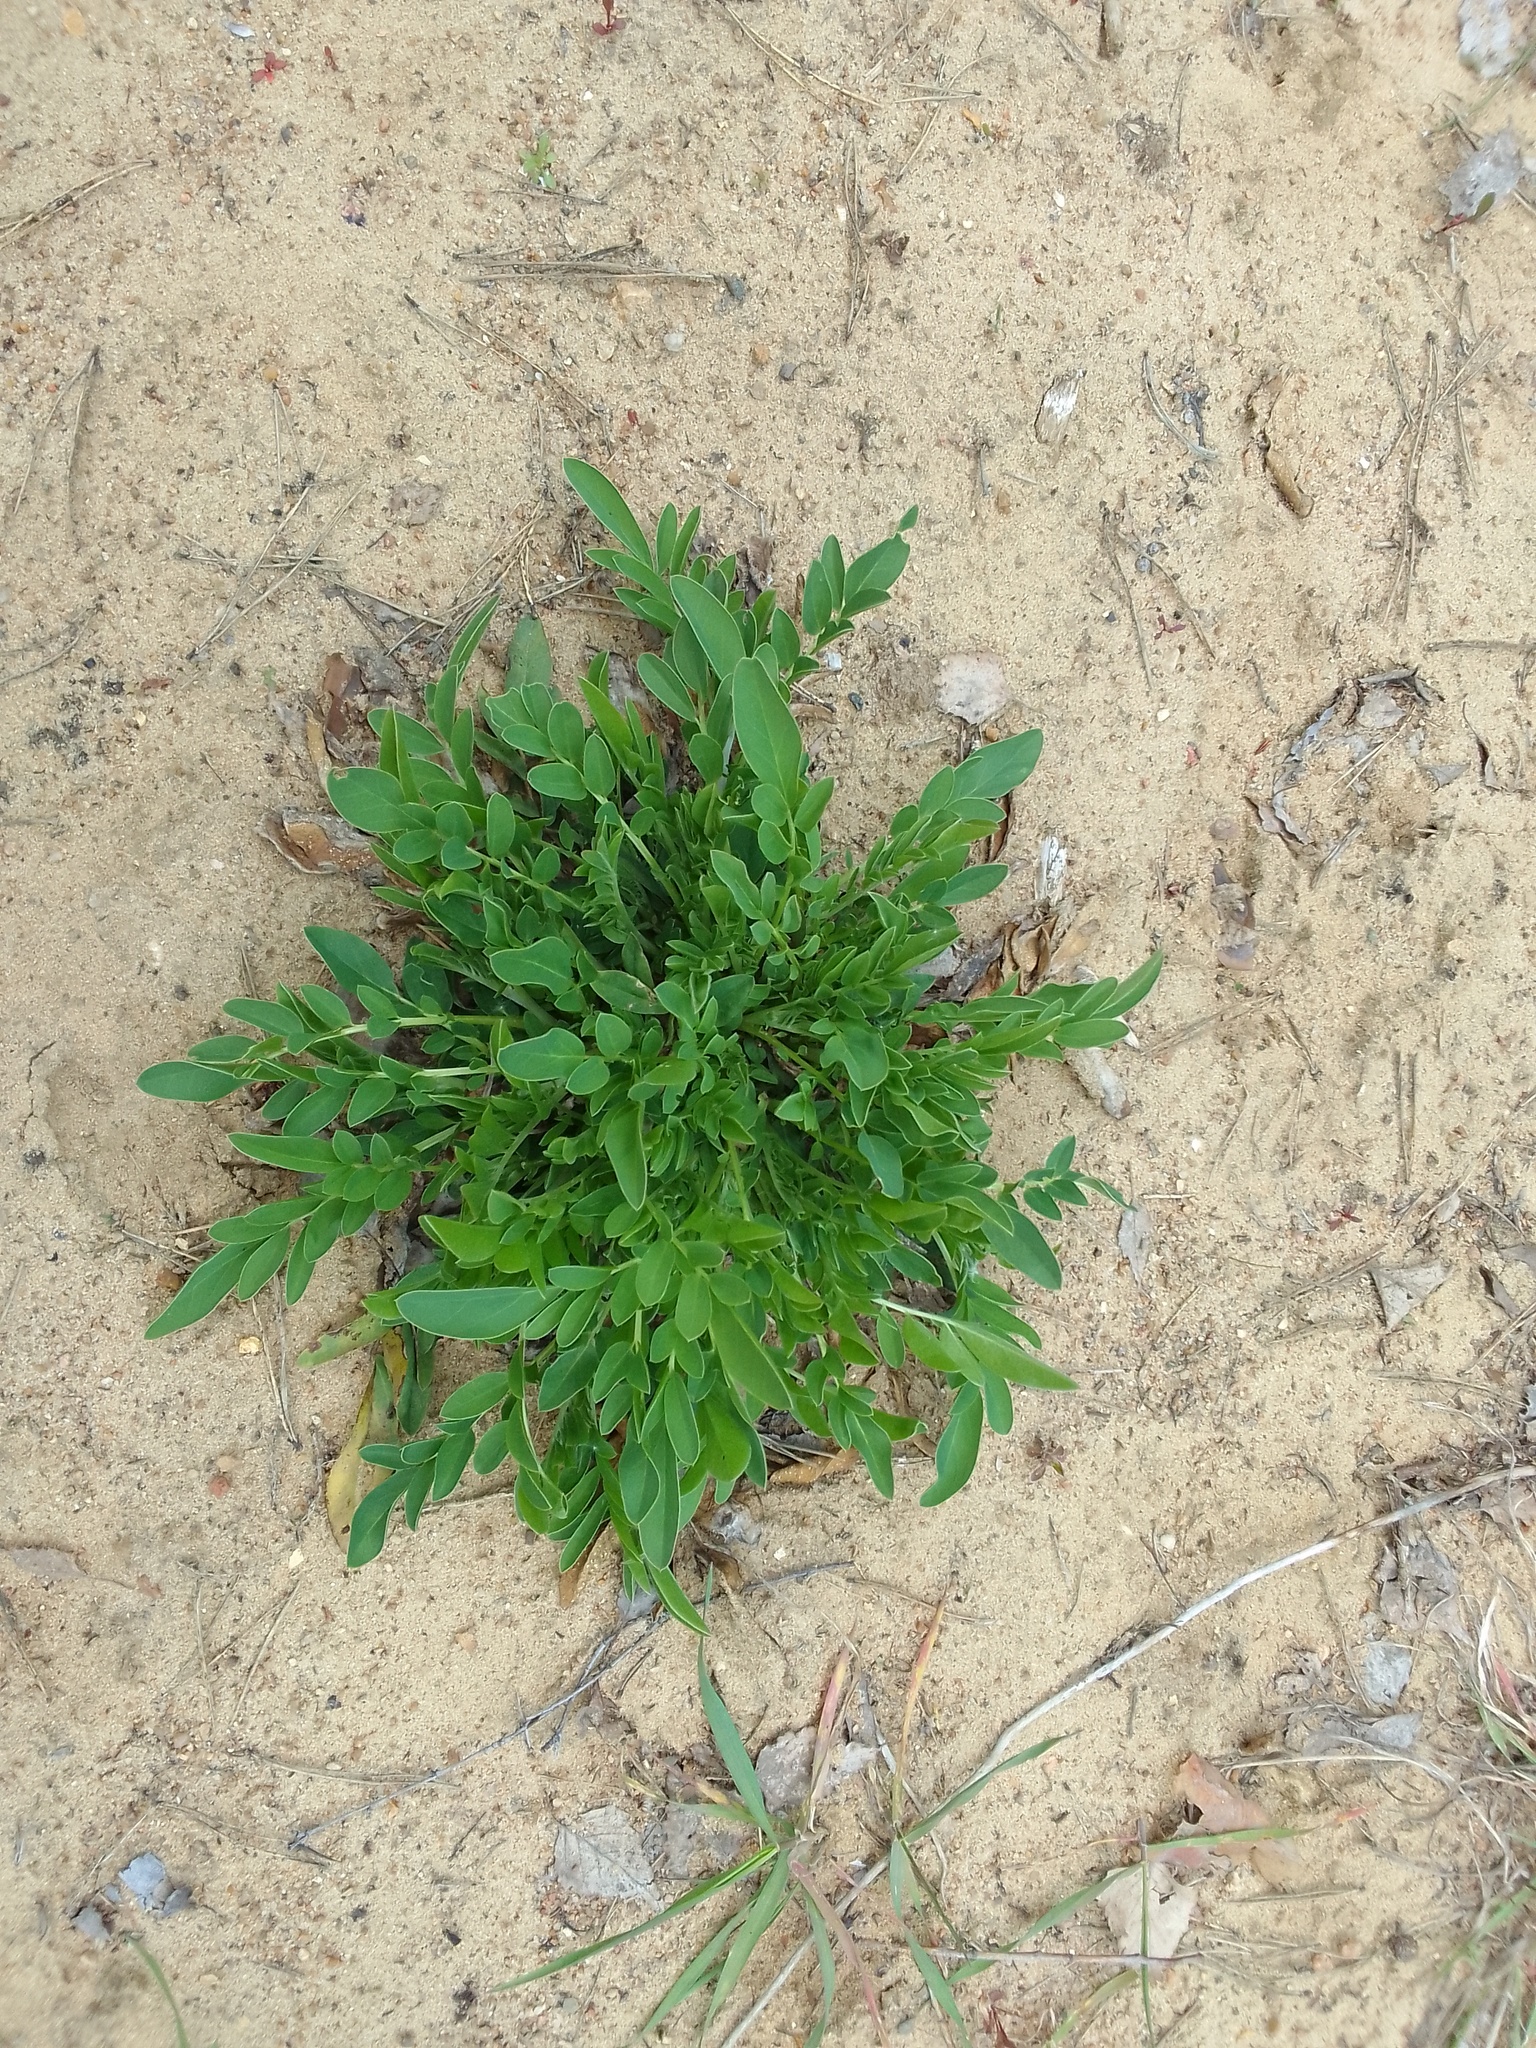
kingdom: Plantae
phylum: Tracheophyta
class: Magnoliopsida
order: Fabales
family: Fabaceae
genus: Anthyllis
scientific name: Anthyllis vulneraria
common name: Kidney vetch
